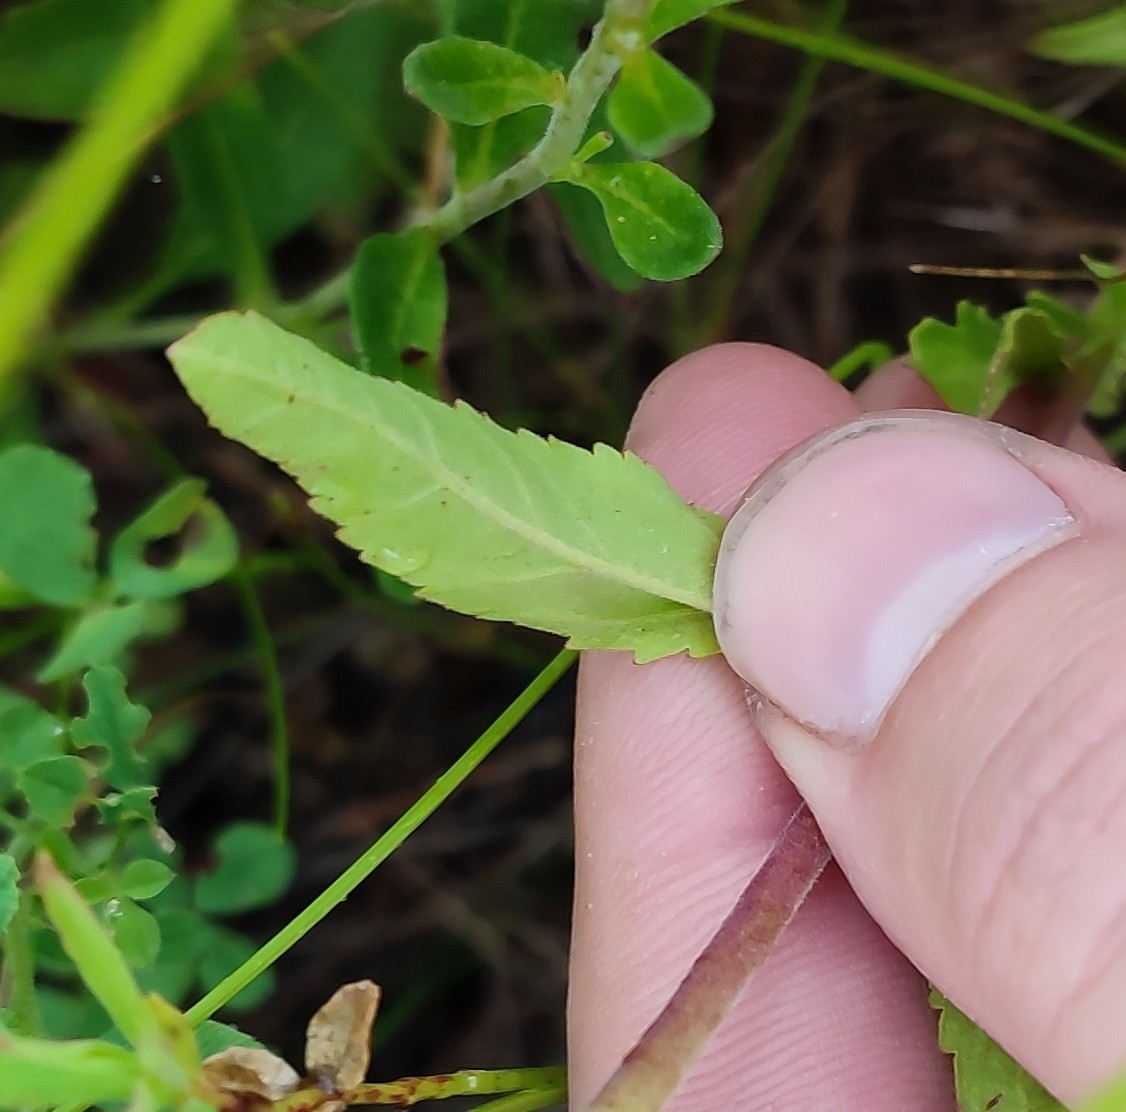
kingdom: Plantae
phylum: Tracheophyta
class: Magnoliopsida
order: Lamiales
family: Plantaginaceae
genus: Veronica
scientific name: Veronica spicata
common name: Spiked speedwell
